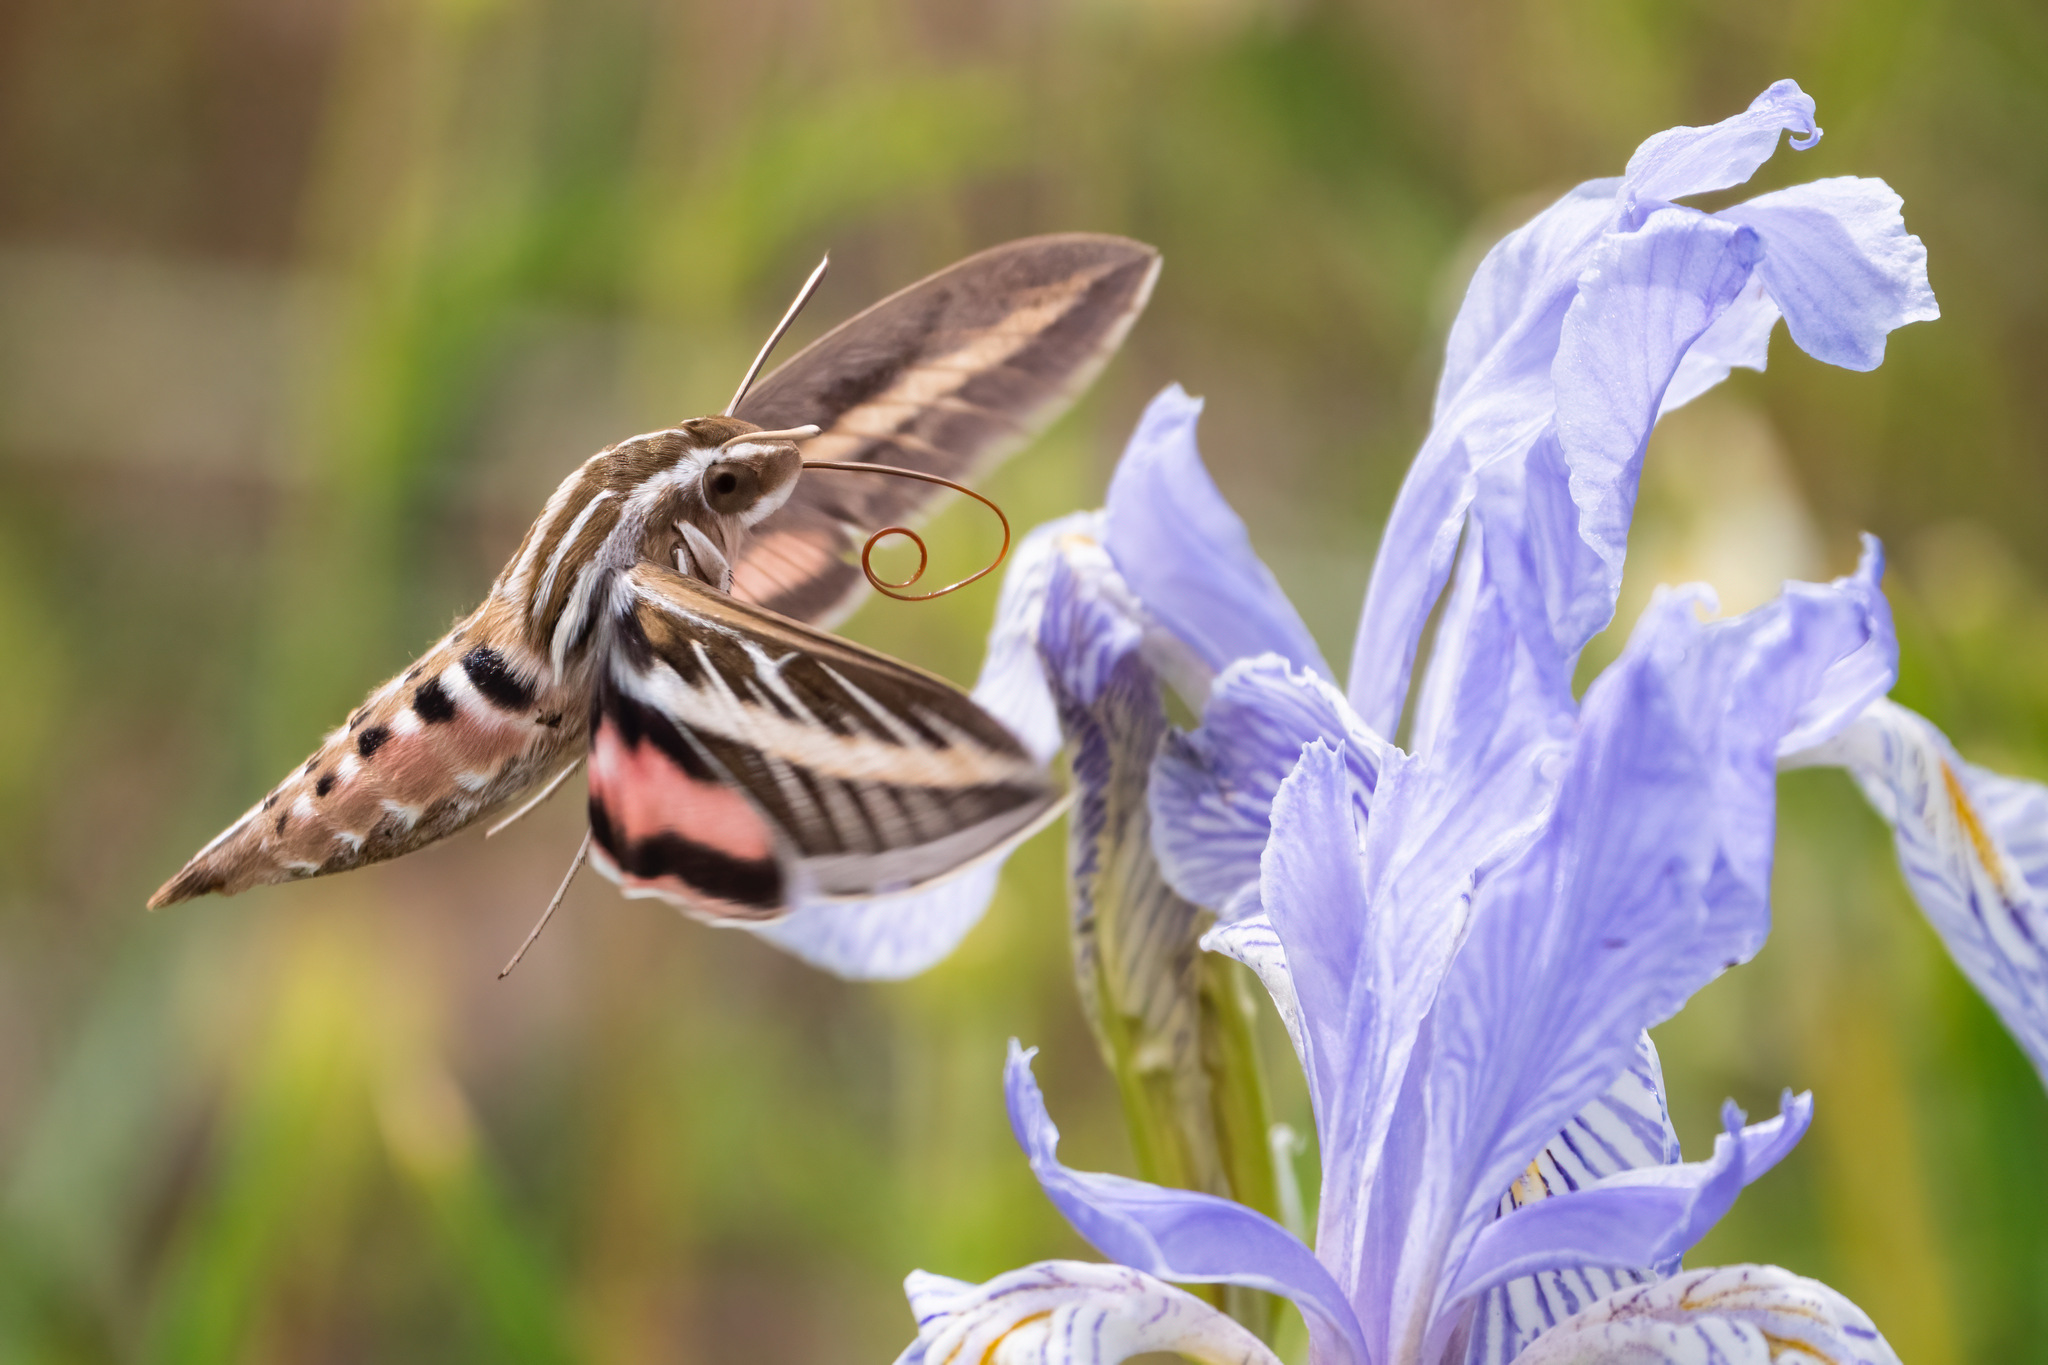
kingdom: Animalia
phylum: Arthropoda
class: Insecta
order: Lepidoptera
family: Sphingidae
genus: Hyles
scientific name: Hyles lineata
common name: White-lined sphinx
